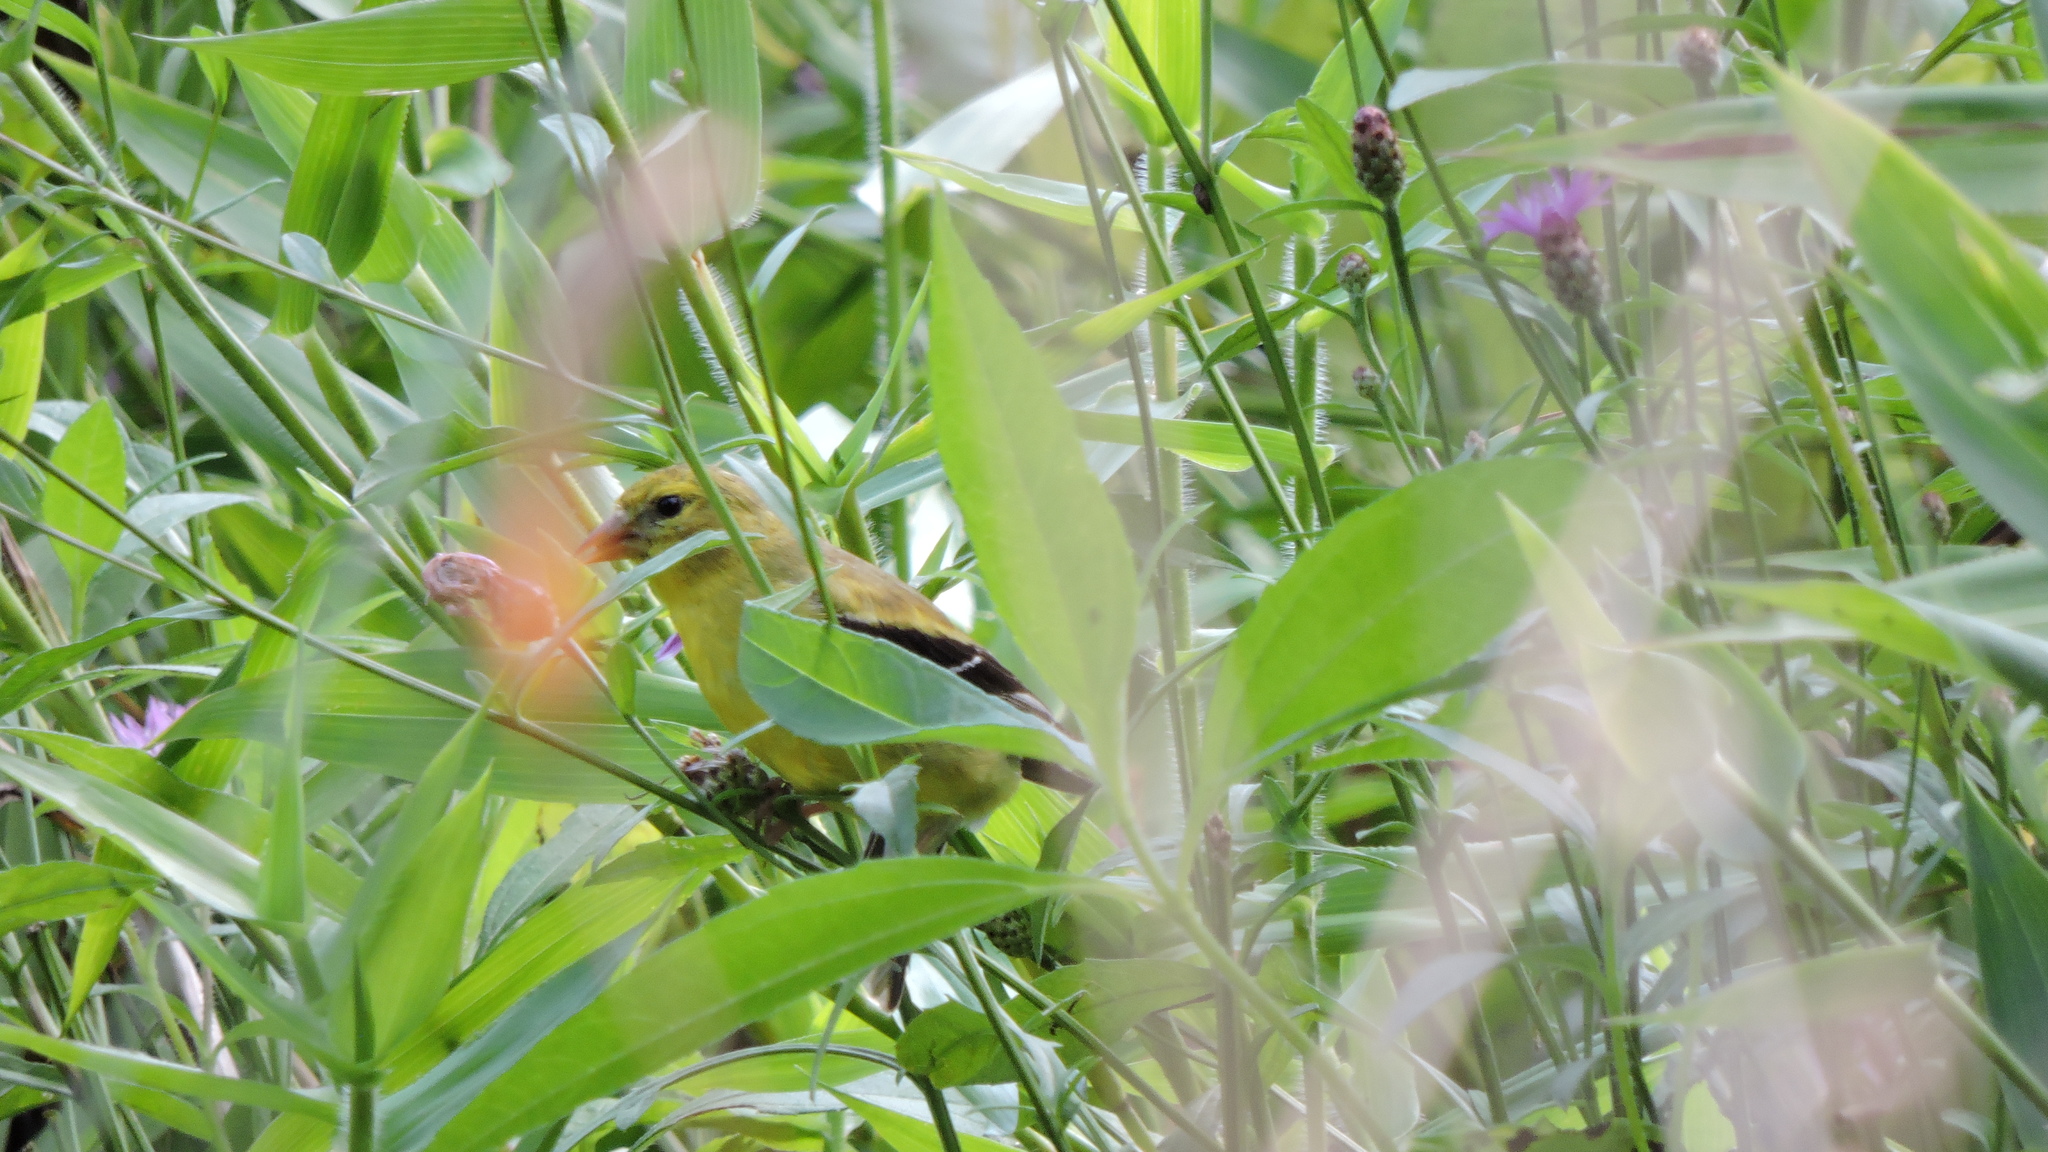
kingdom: Animalia
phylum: Chordata
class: Aves
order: Passeriformes
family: Fringillidae
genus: Spinus
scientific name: Spinus tristis
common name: American goldfinch
